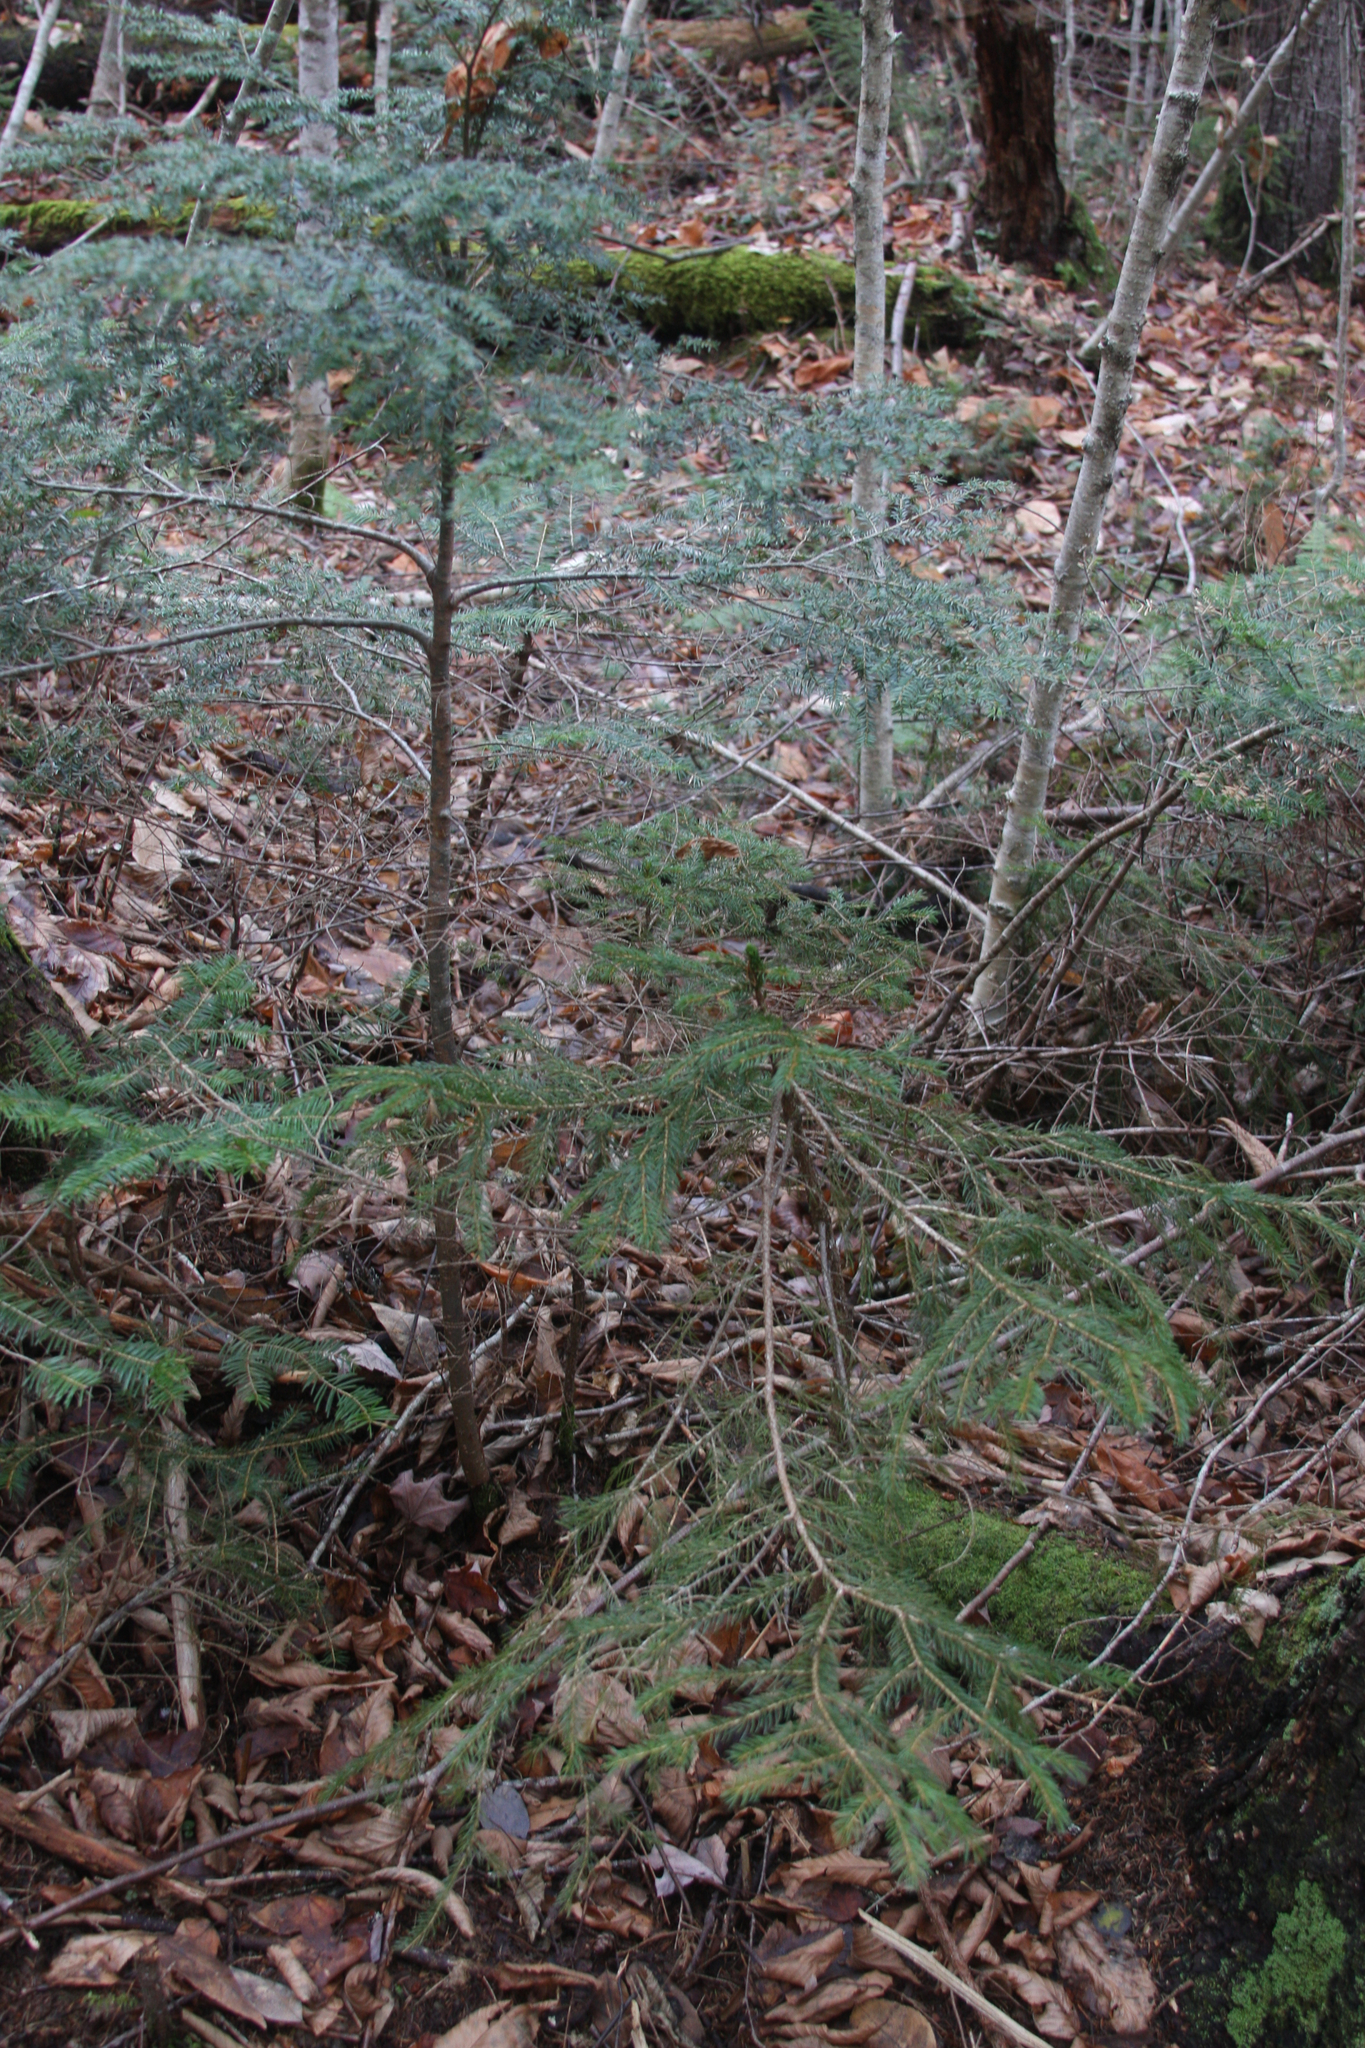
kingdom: Plantae
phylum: Tracheophyta
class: Pinopsida
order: Pinales
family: Pinaceae
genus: Picea
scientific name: Picea rubens
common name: Red spruce
